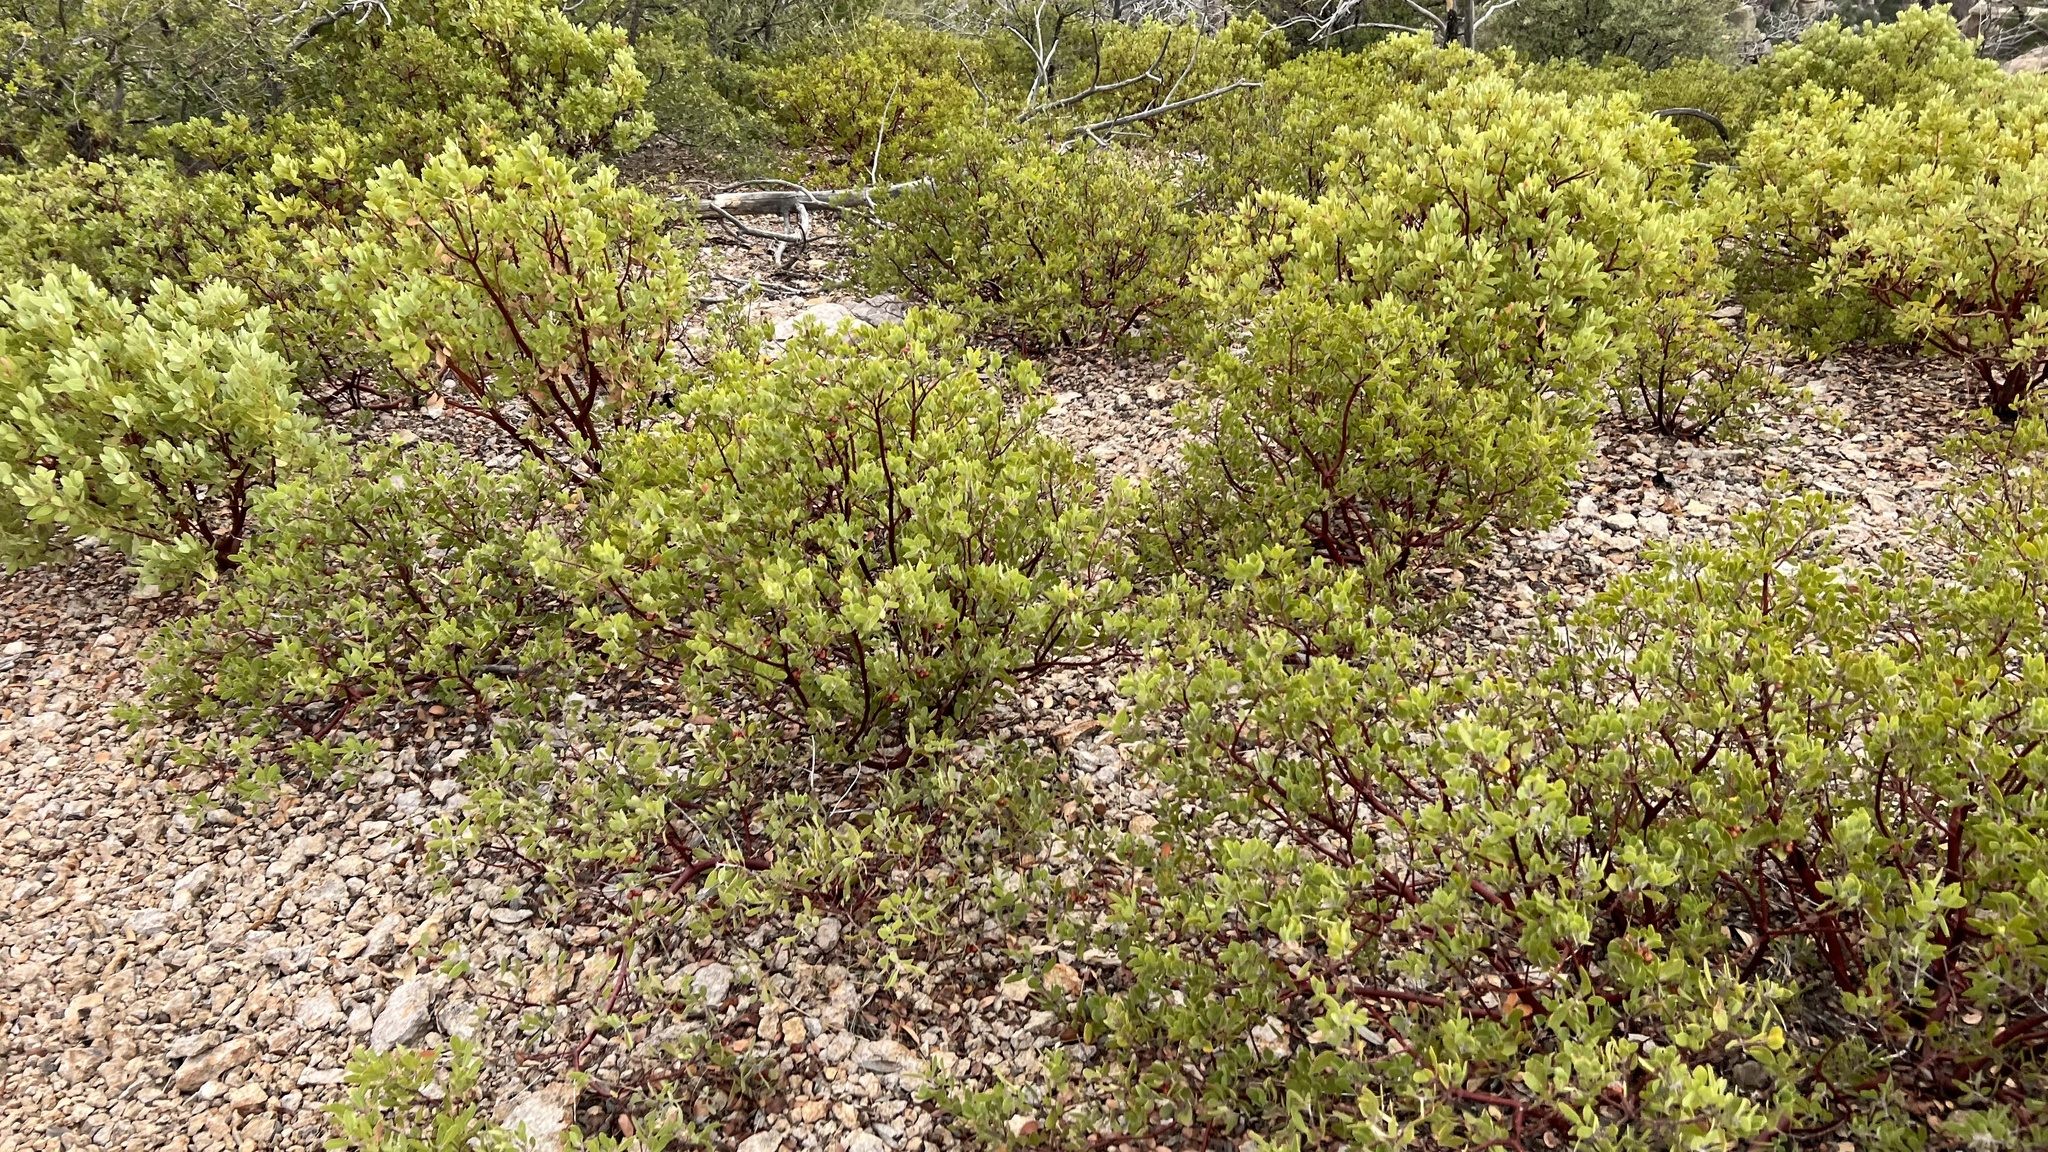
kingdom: Plantae
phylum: Tracheophyta
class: Magnoliopsida
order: Ericales
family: Ericaceae
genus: Arctostaphylos
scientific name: Arctostaphylos pungens
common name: Mexican manzanita
